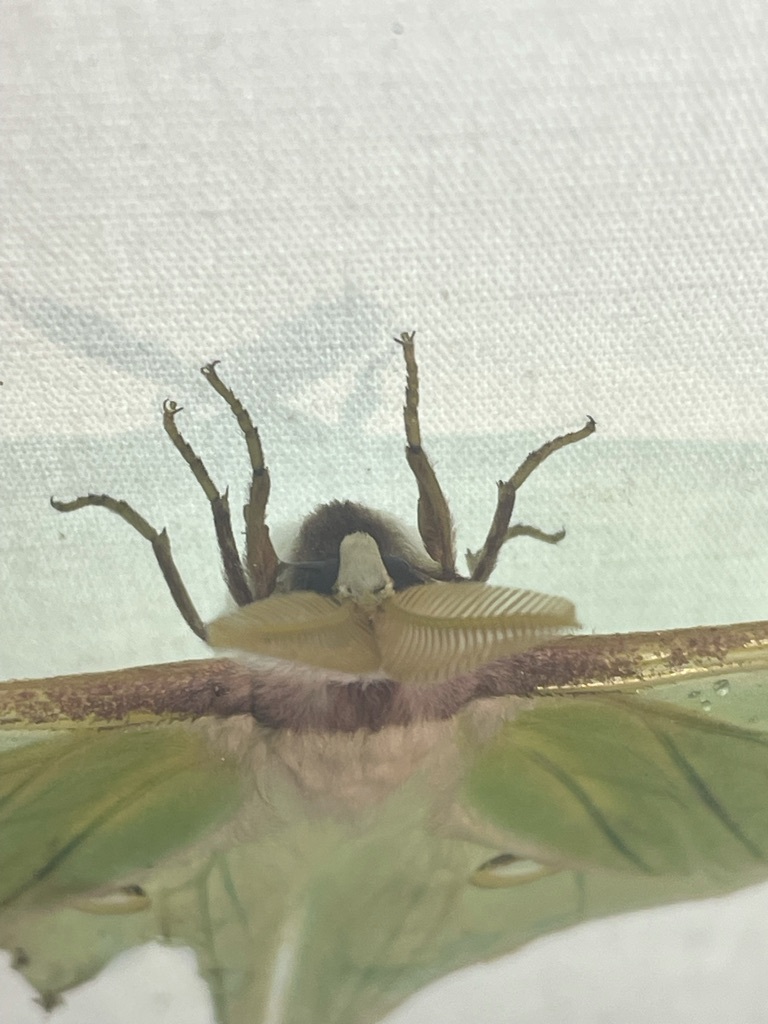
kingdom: Animalia
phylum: Arthropoda
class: Insecta
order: Lepidoptera
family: Saturniidae
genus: Actias
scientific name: Actias luna
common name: Luna moth
